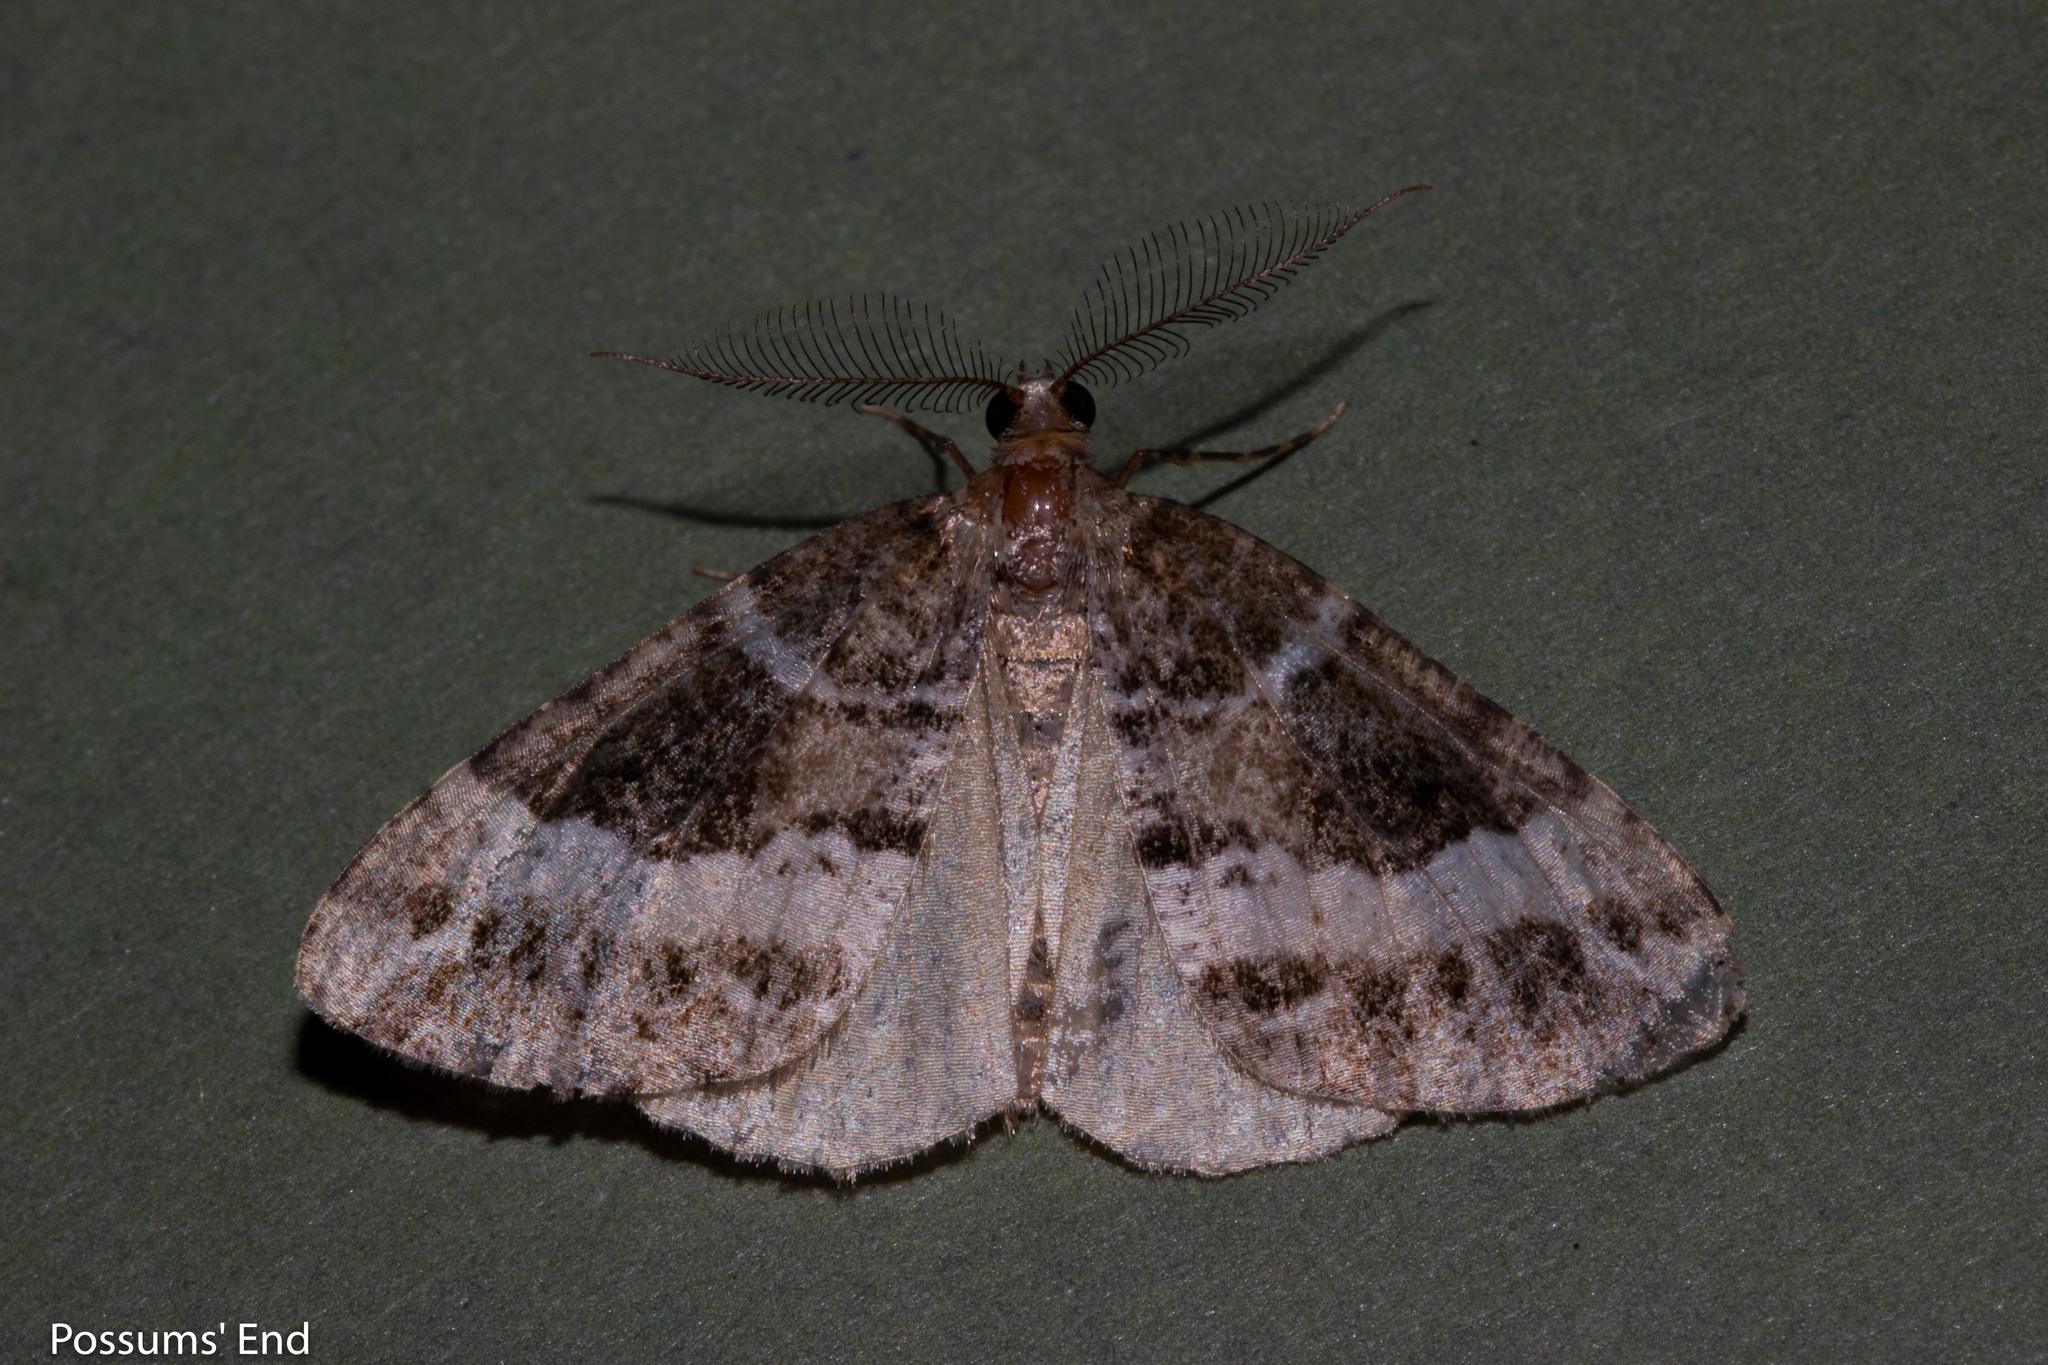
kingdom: Animalia
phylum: Arthropoda
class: Insecta
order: Lepidoptera
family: Geometridae
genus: Pseudocoremia
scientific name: Pseudocoremia
